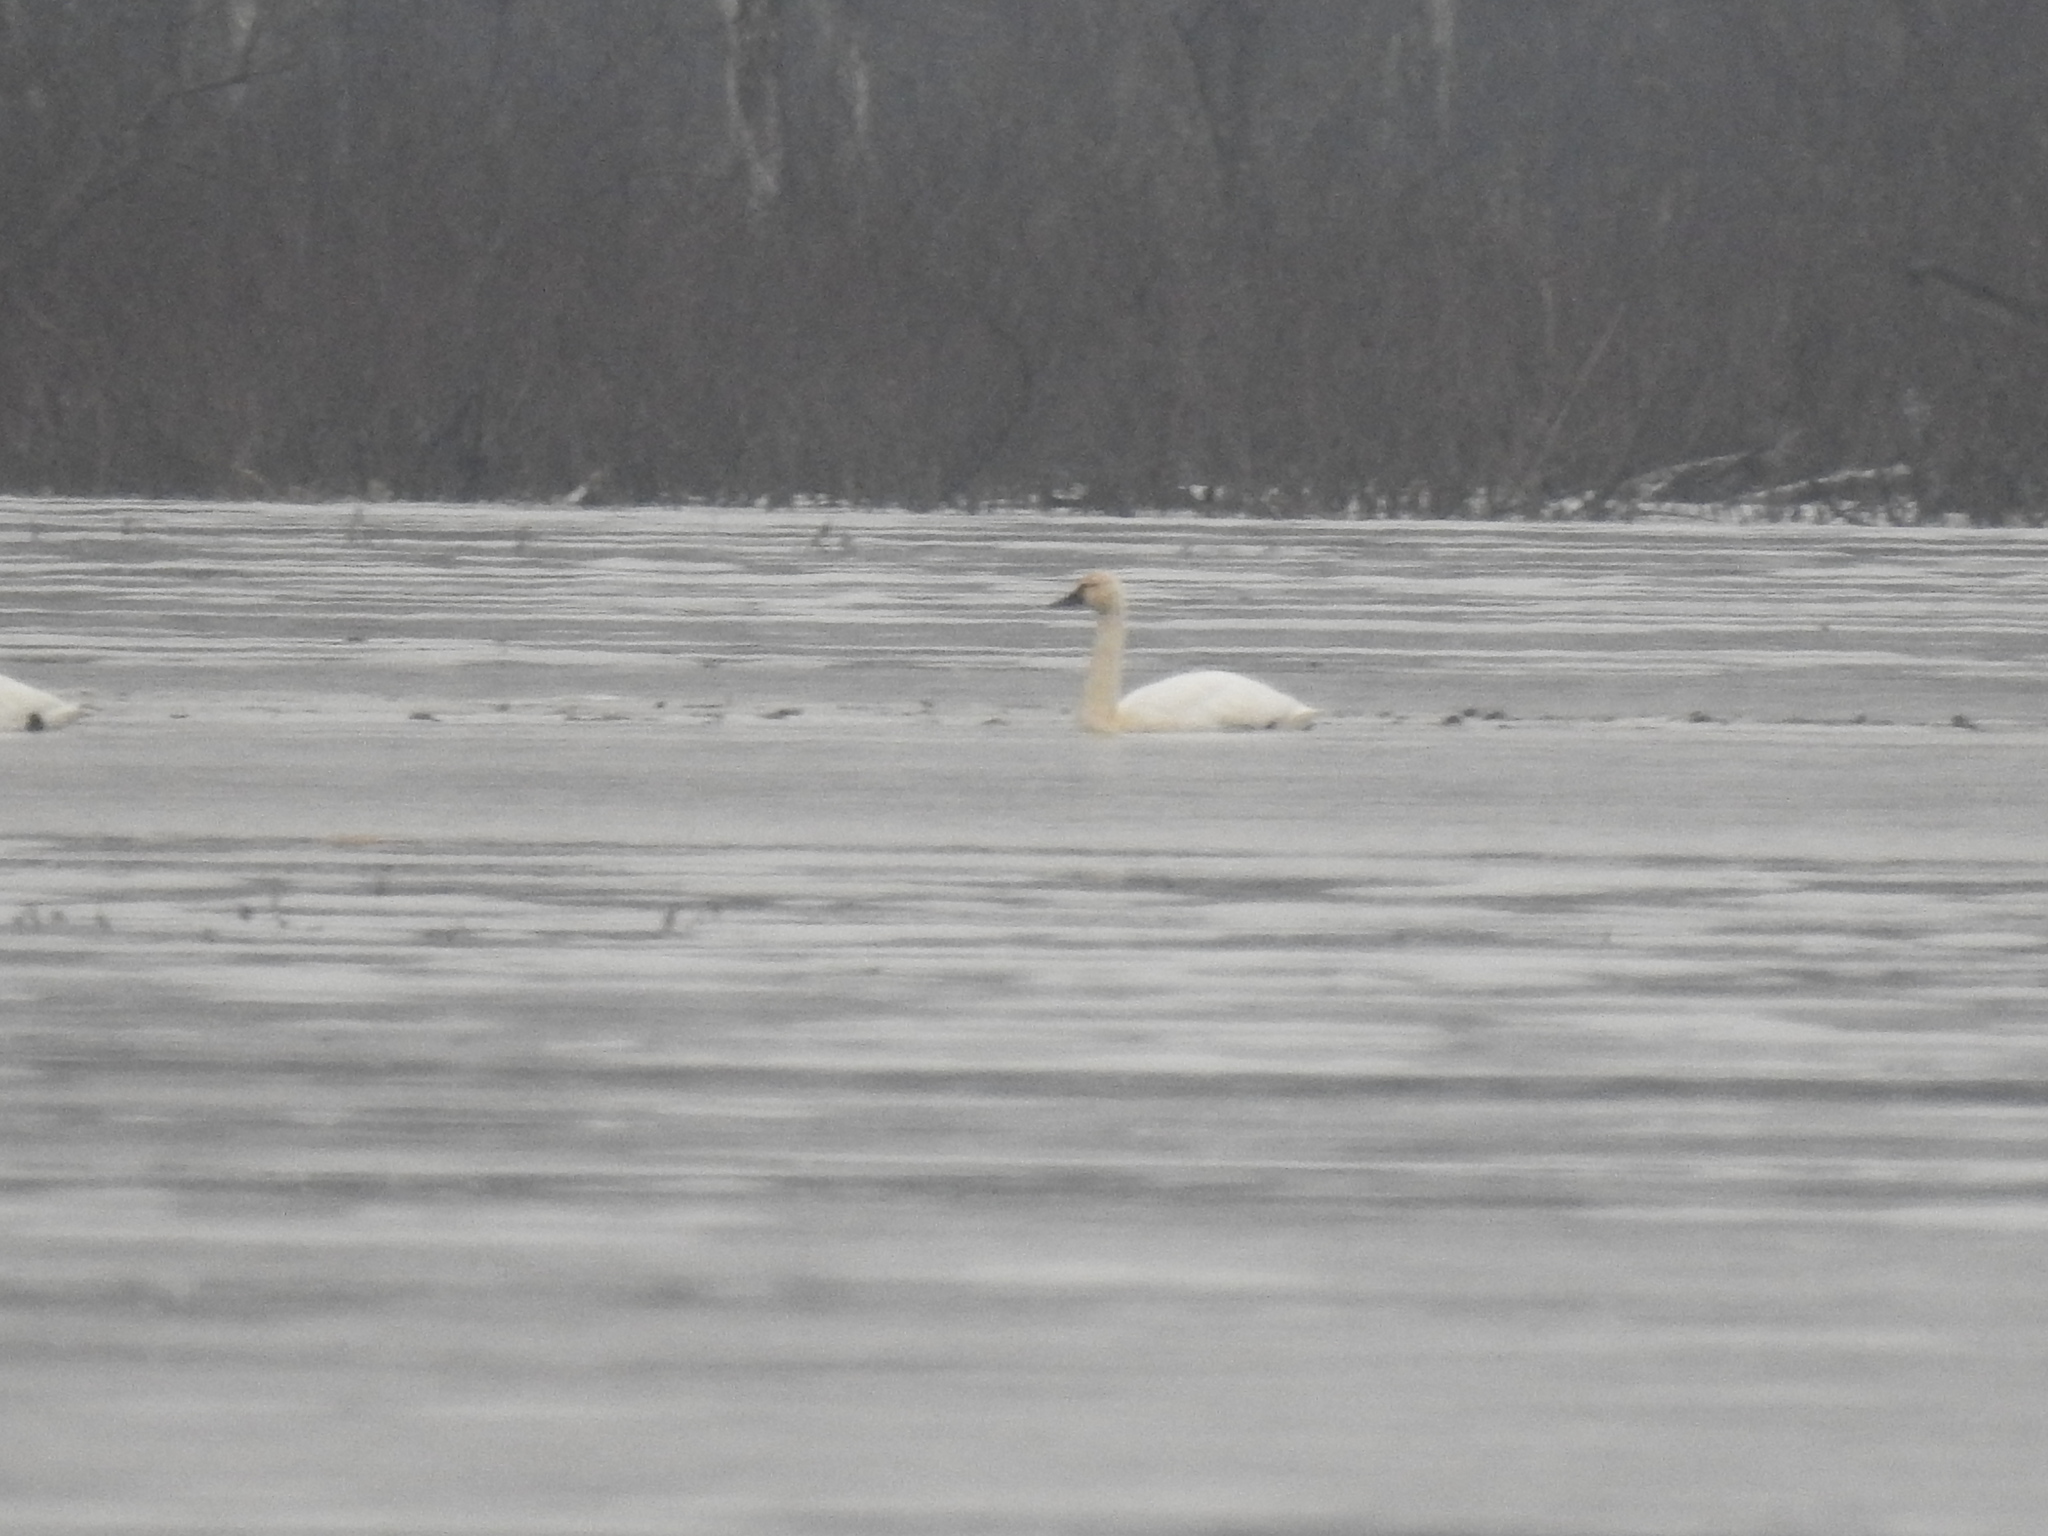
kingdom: Animalia
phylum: Chordata
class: Aves
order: Anseriformes
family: Anatidae
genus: Cygnus
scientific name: Cygnus columbianus
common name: Tundra swan
